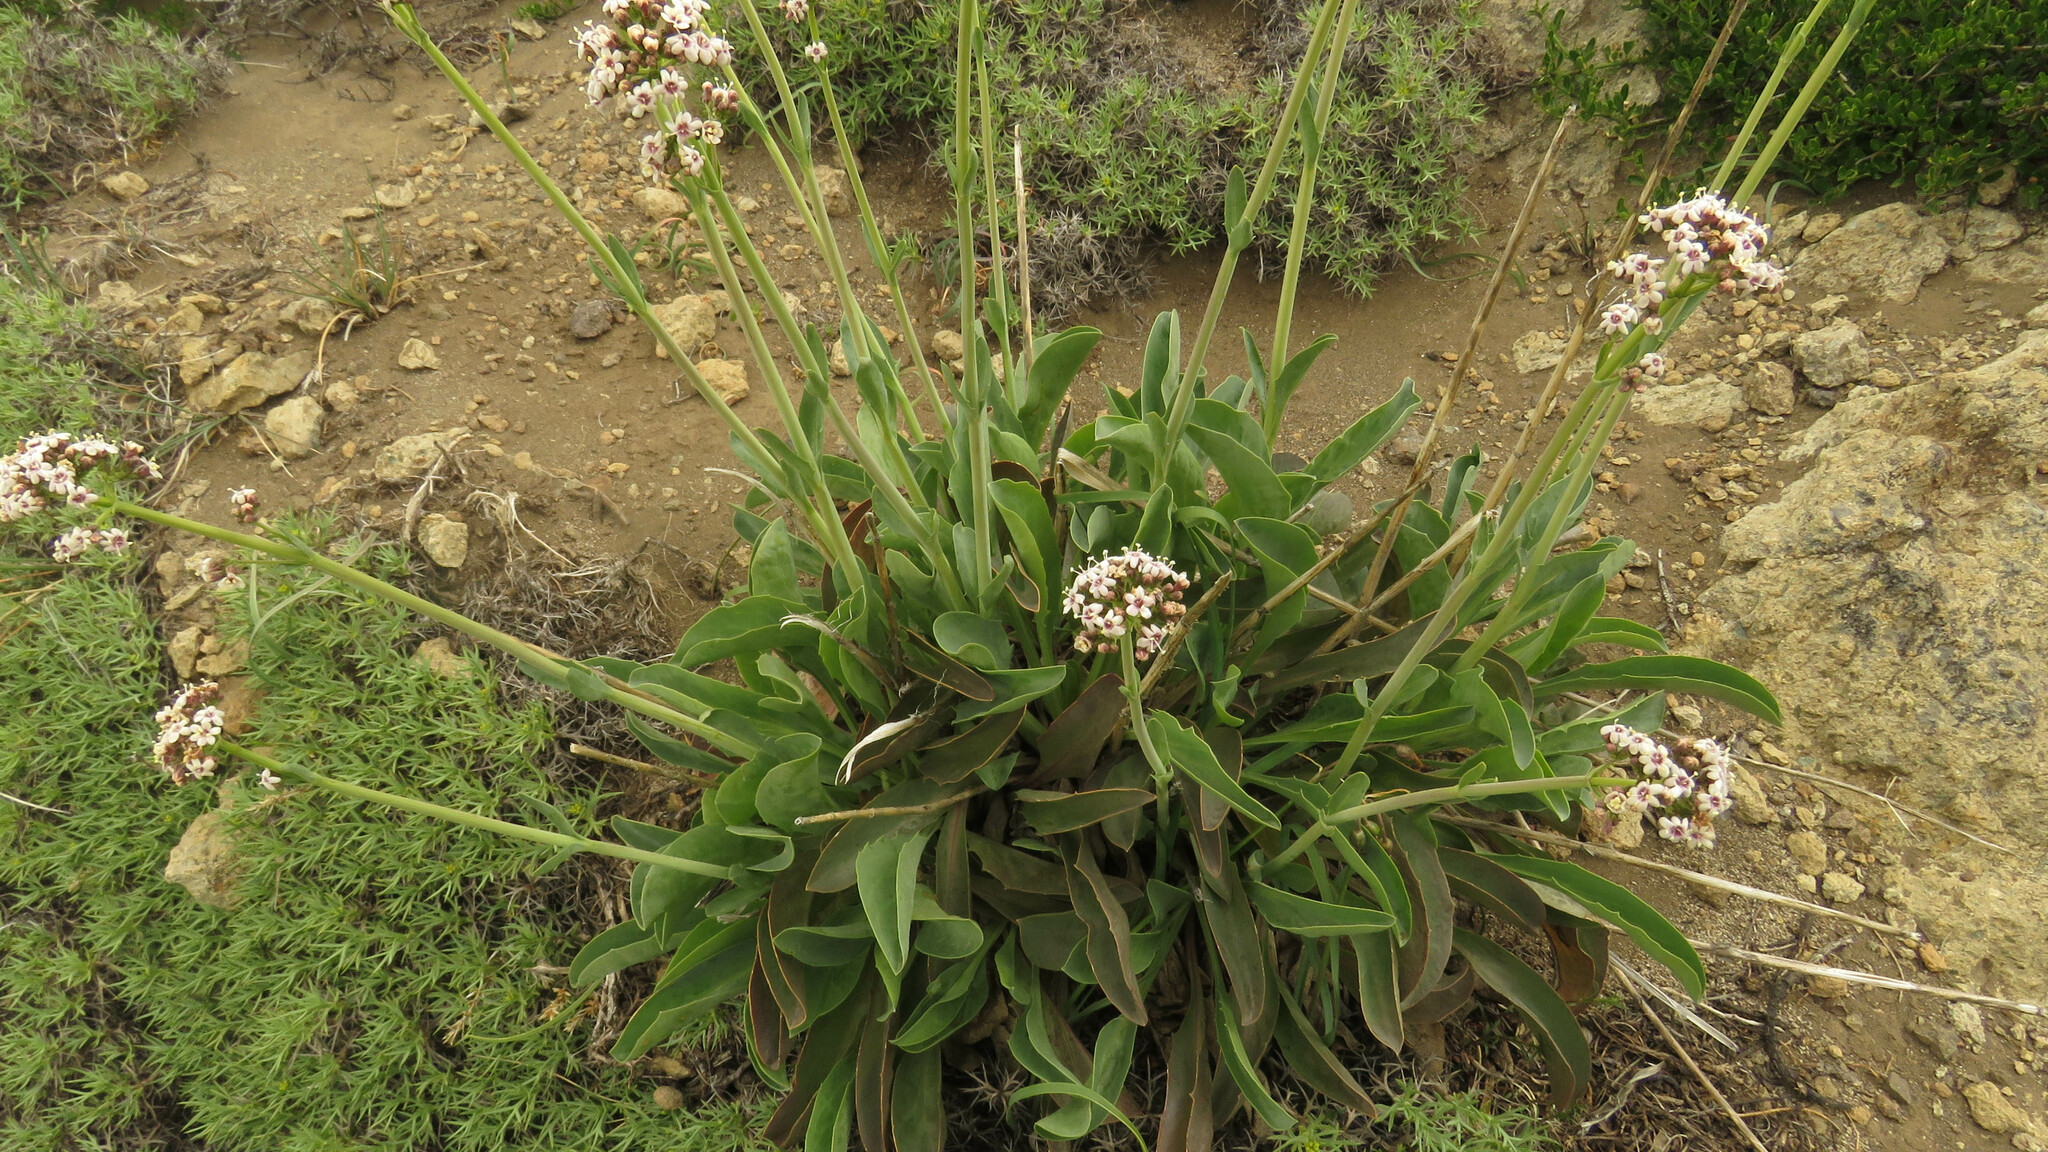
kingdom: Plantae
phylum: Tracheophyta
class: Magnoliopsida
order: Dipsacales
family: Caprifoliaceae
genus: Valeriana
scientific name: Valeriana carnosa
